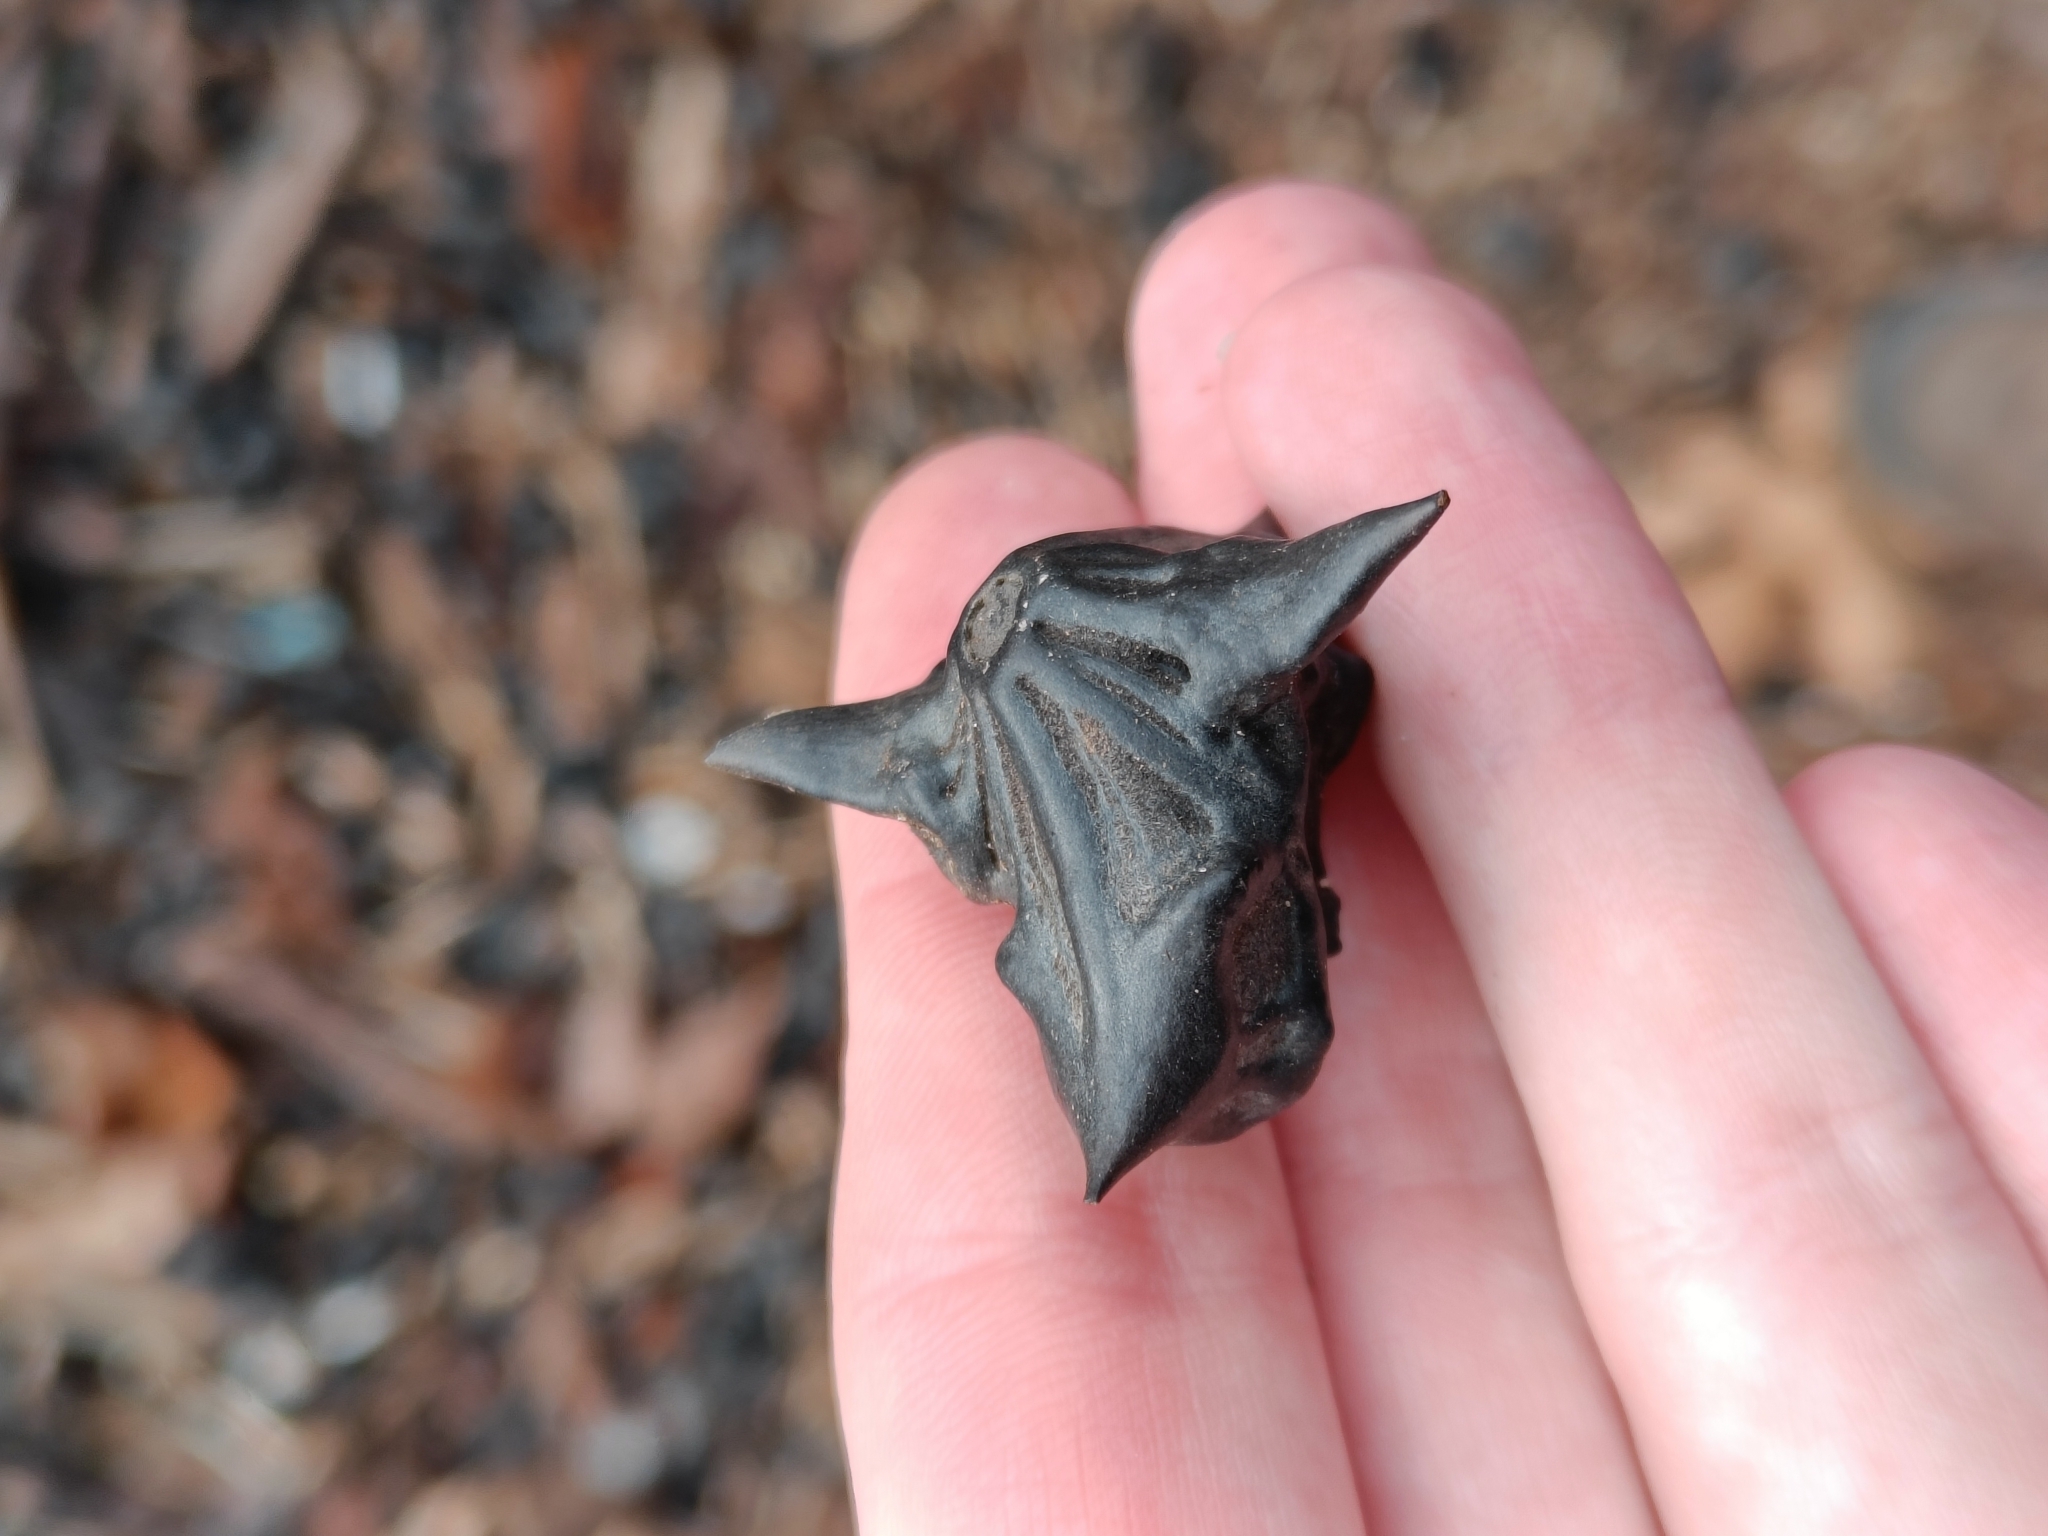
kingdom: Plantae
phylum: Tracheophyta
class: Magnoliopsida
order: Myrtales
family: Lythraceae
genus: Trapa
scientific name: Trapa natans
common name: Water chestnut
